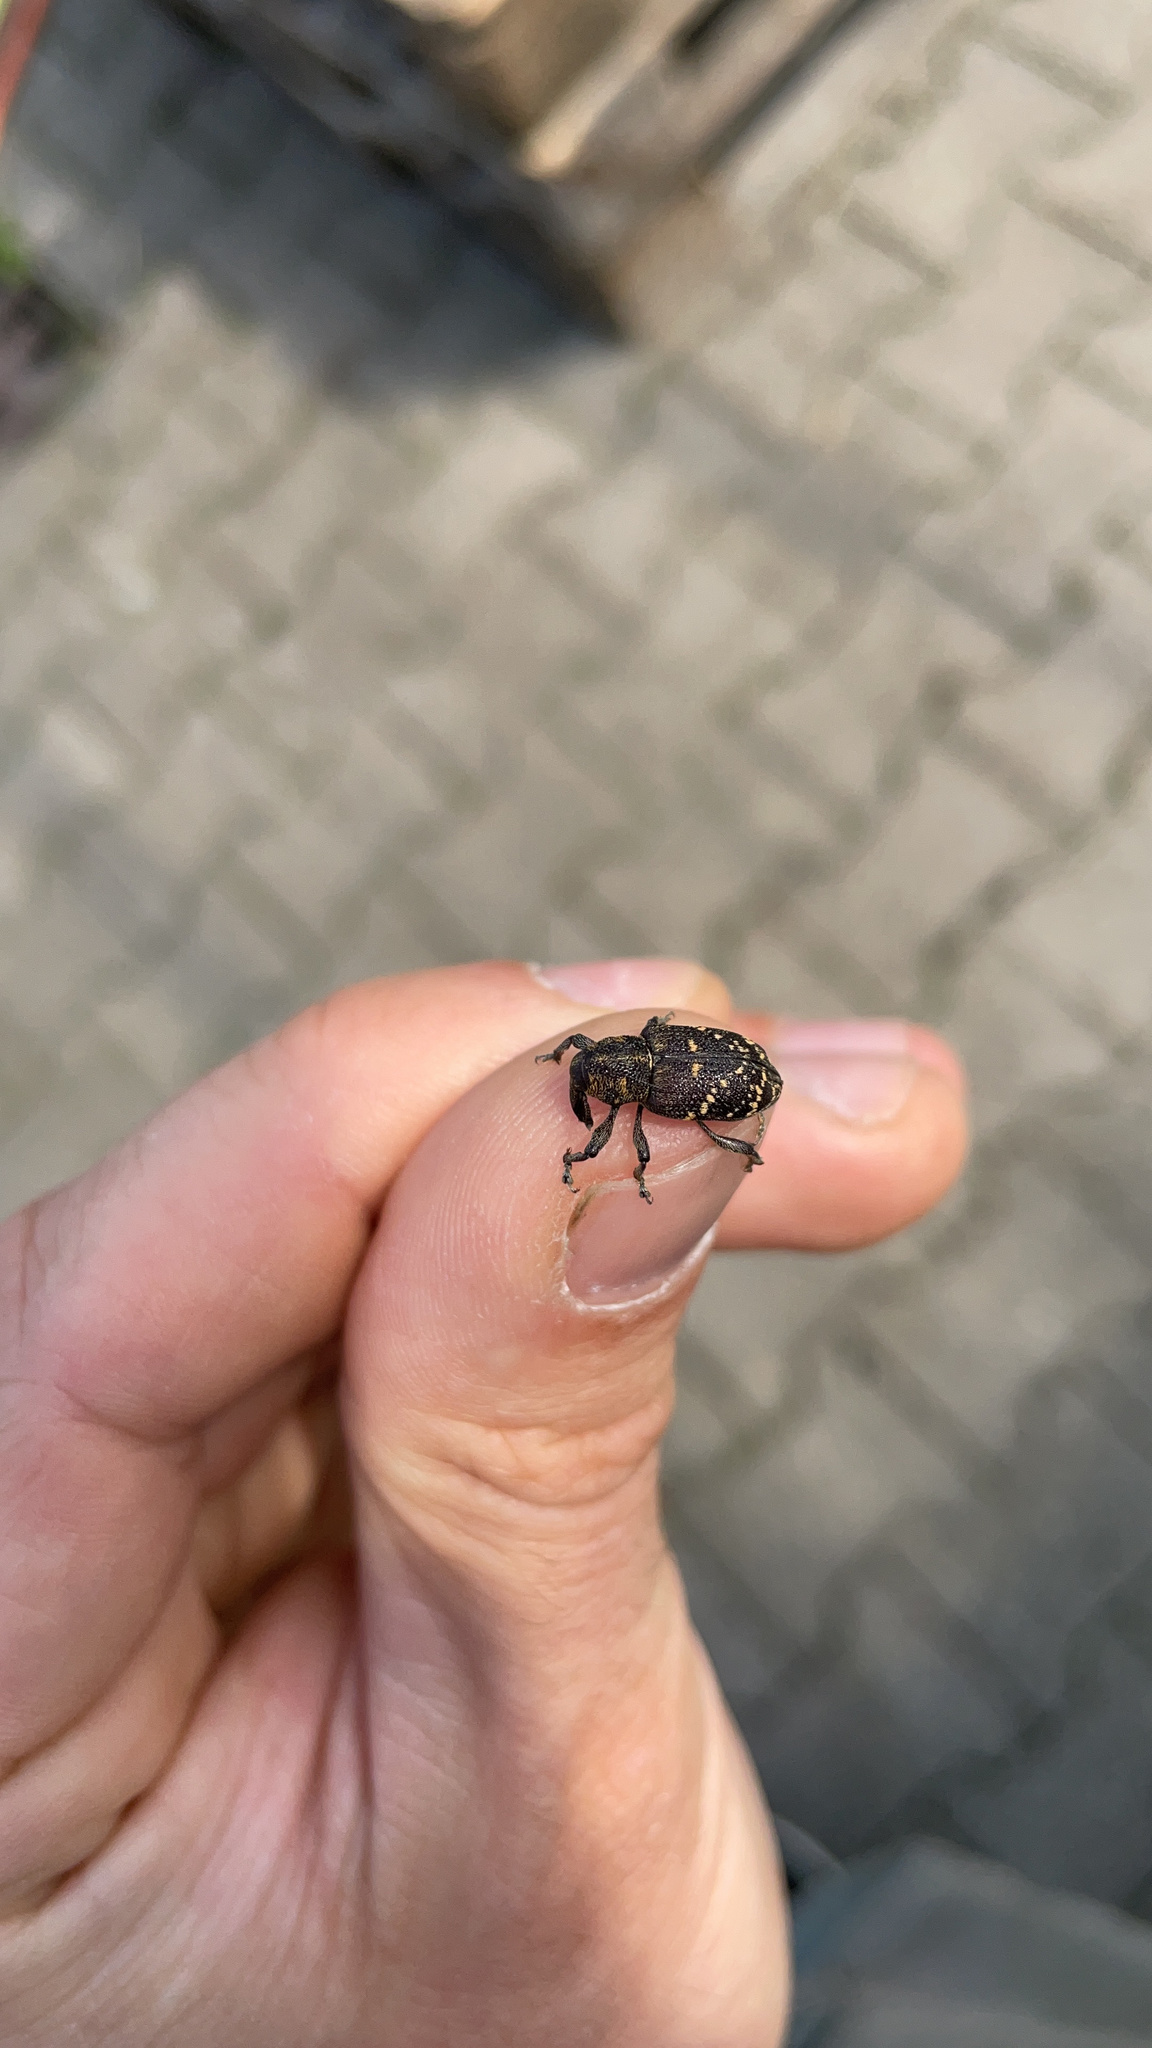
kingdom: Animalia
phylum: Arthropoda
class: Insecta
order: Coleoptera
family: Curculionidae
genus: Hylobius
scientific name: Hylobius abietis
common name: Large pine weevil
